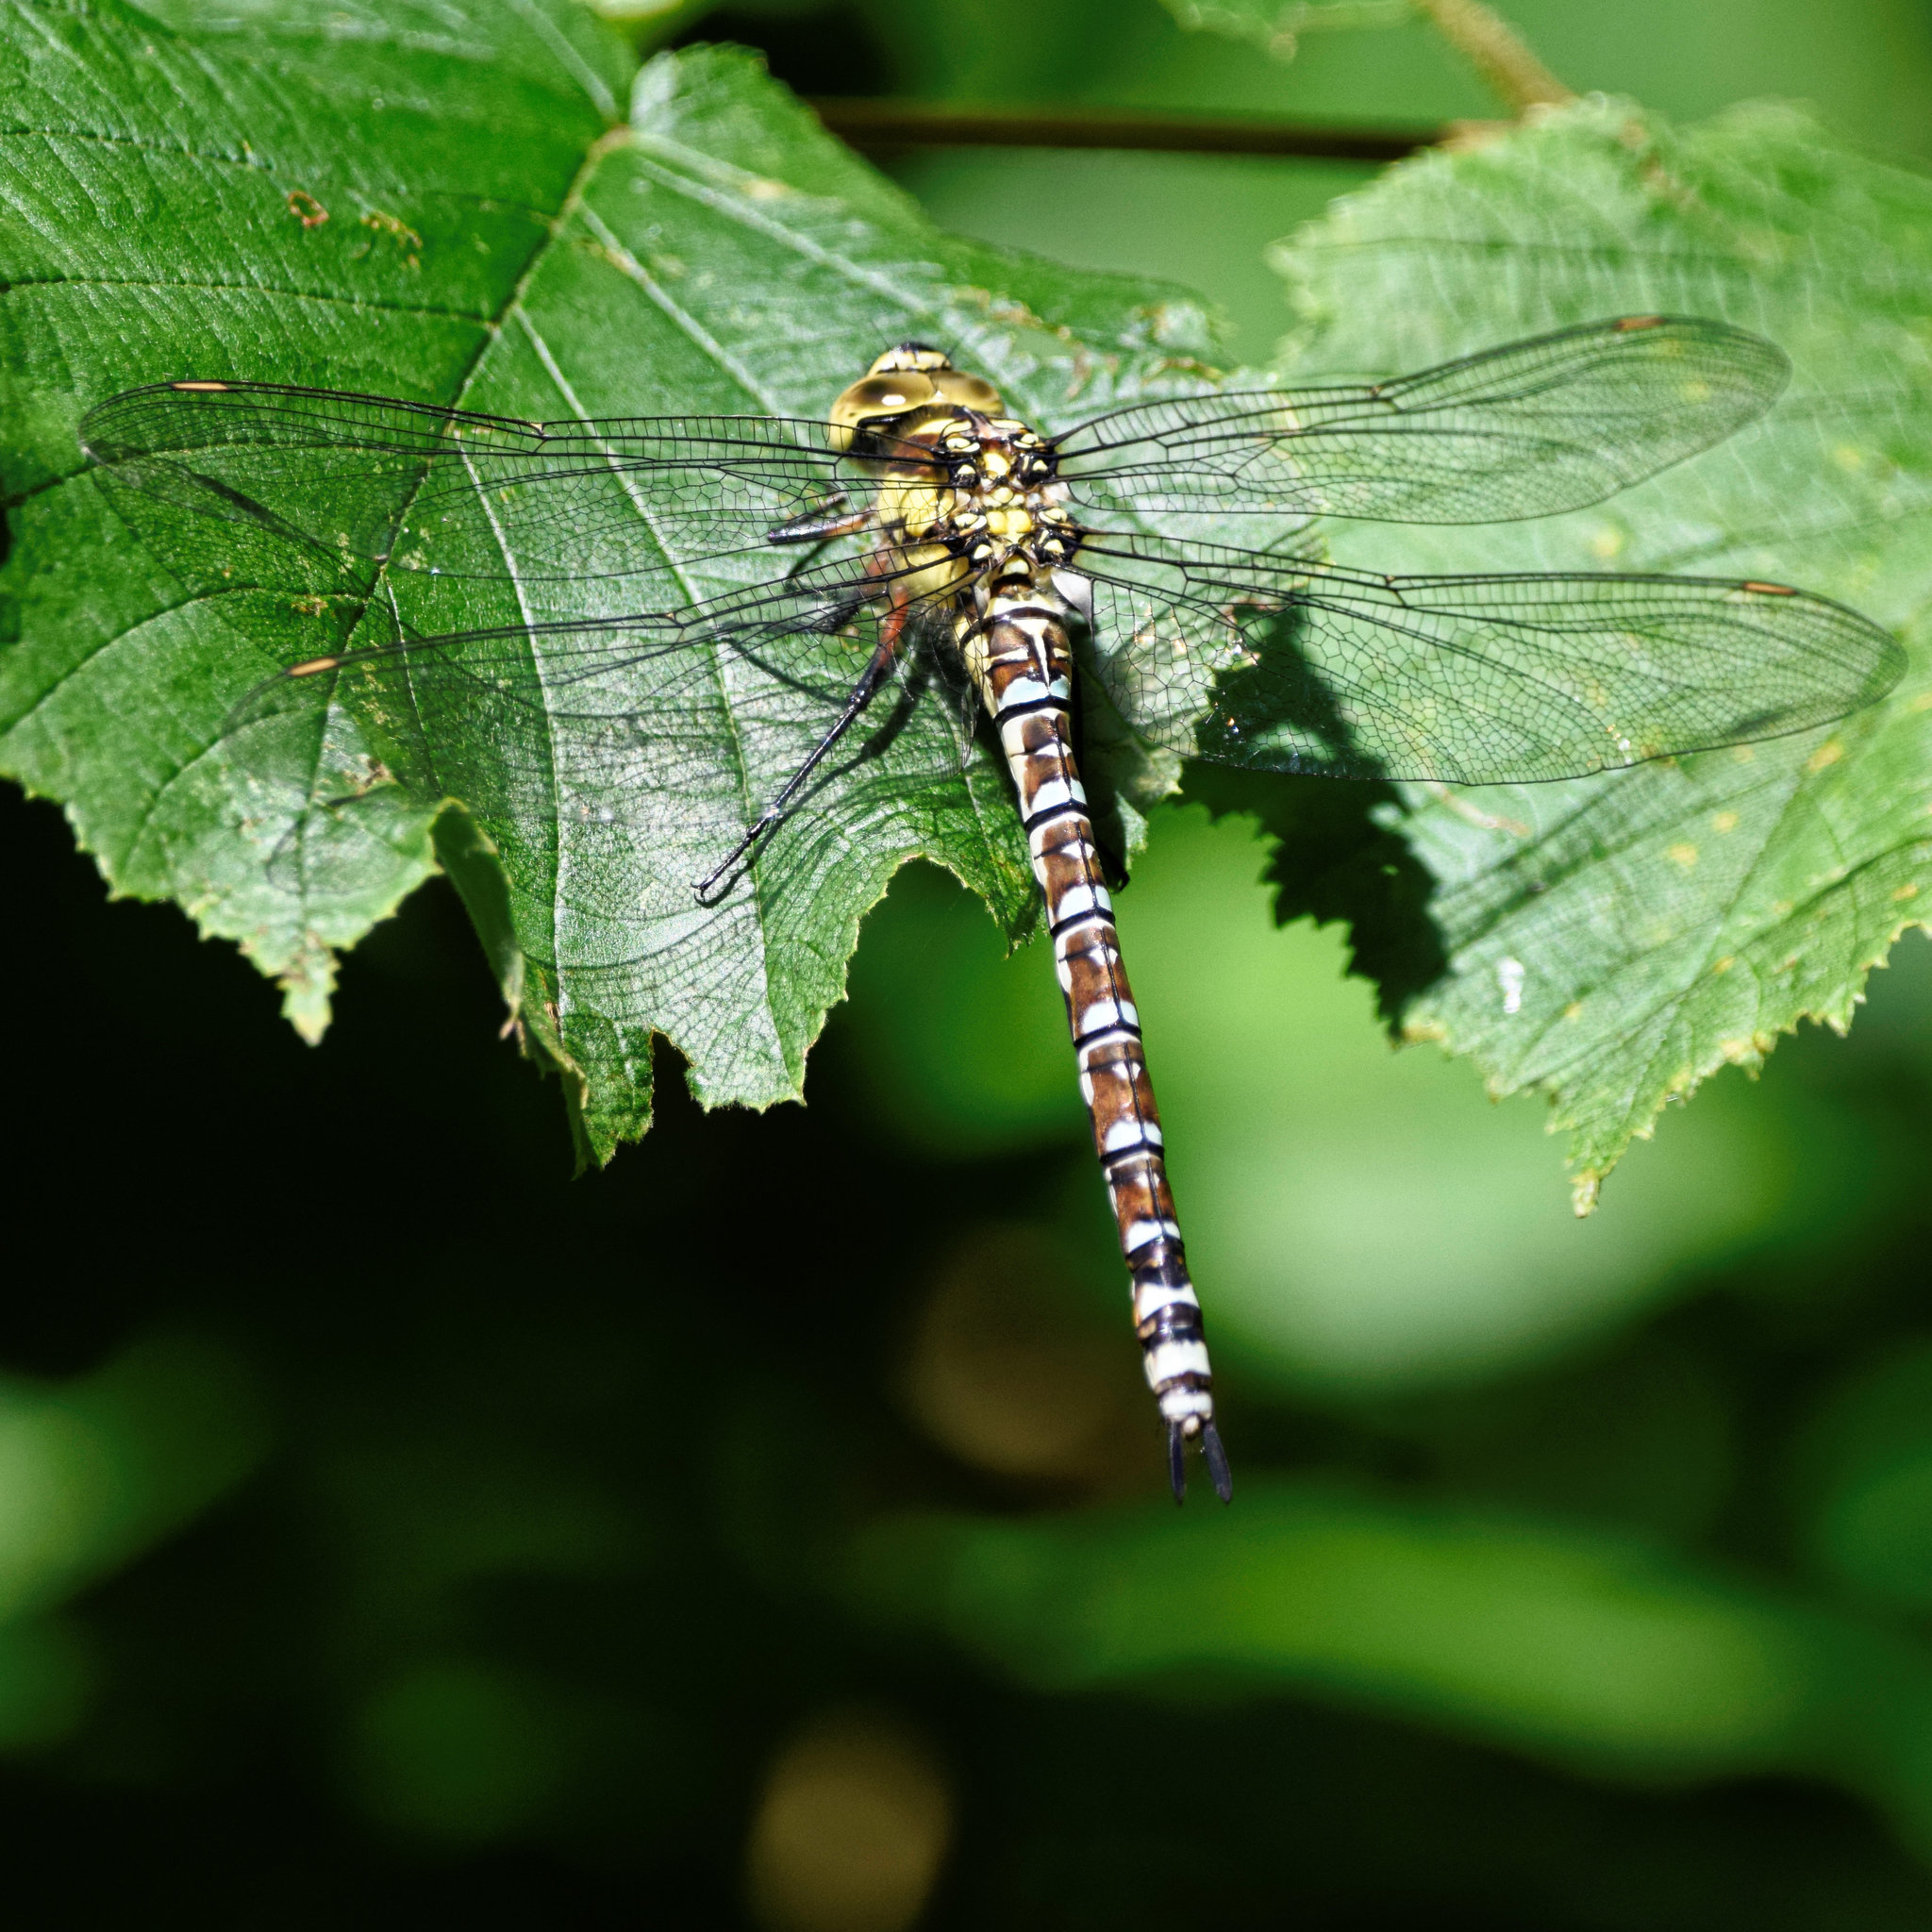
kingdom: Animalia
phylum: Arthropoda
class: Insecta
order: Odonata
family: Aeshnidae
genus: Aeshna
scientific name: Aeshna cyanea
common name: Southern hawker
